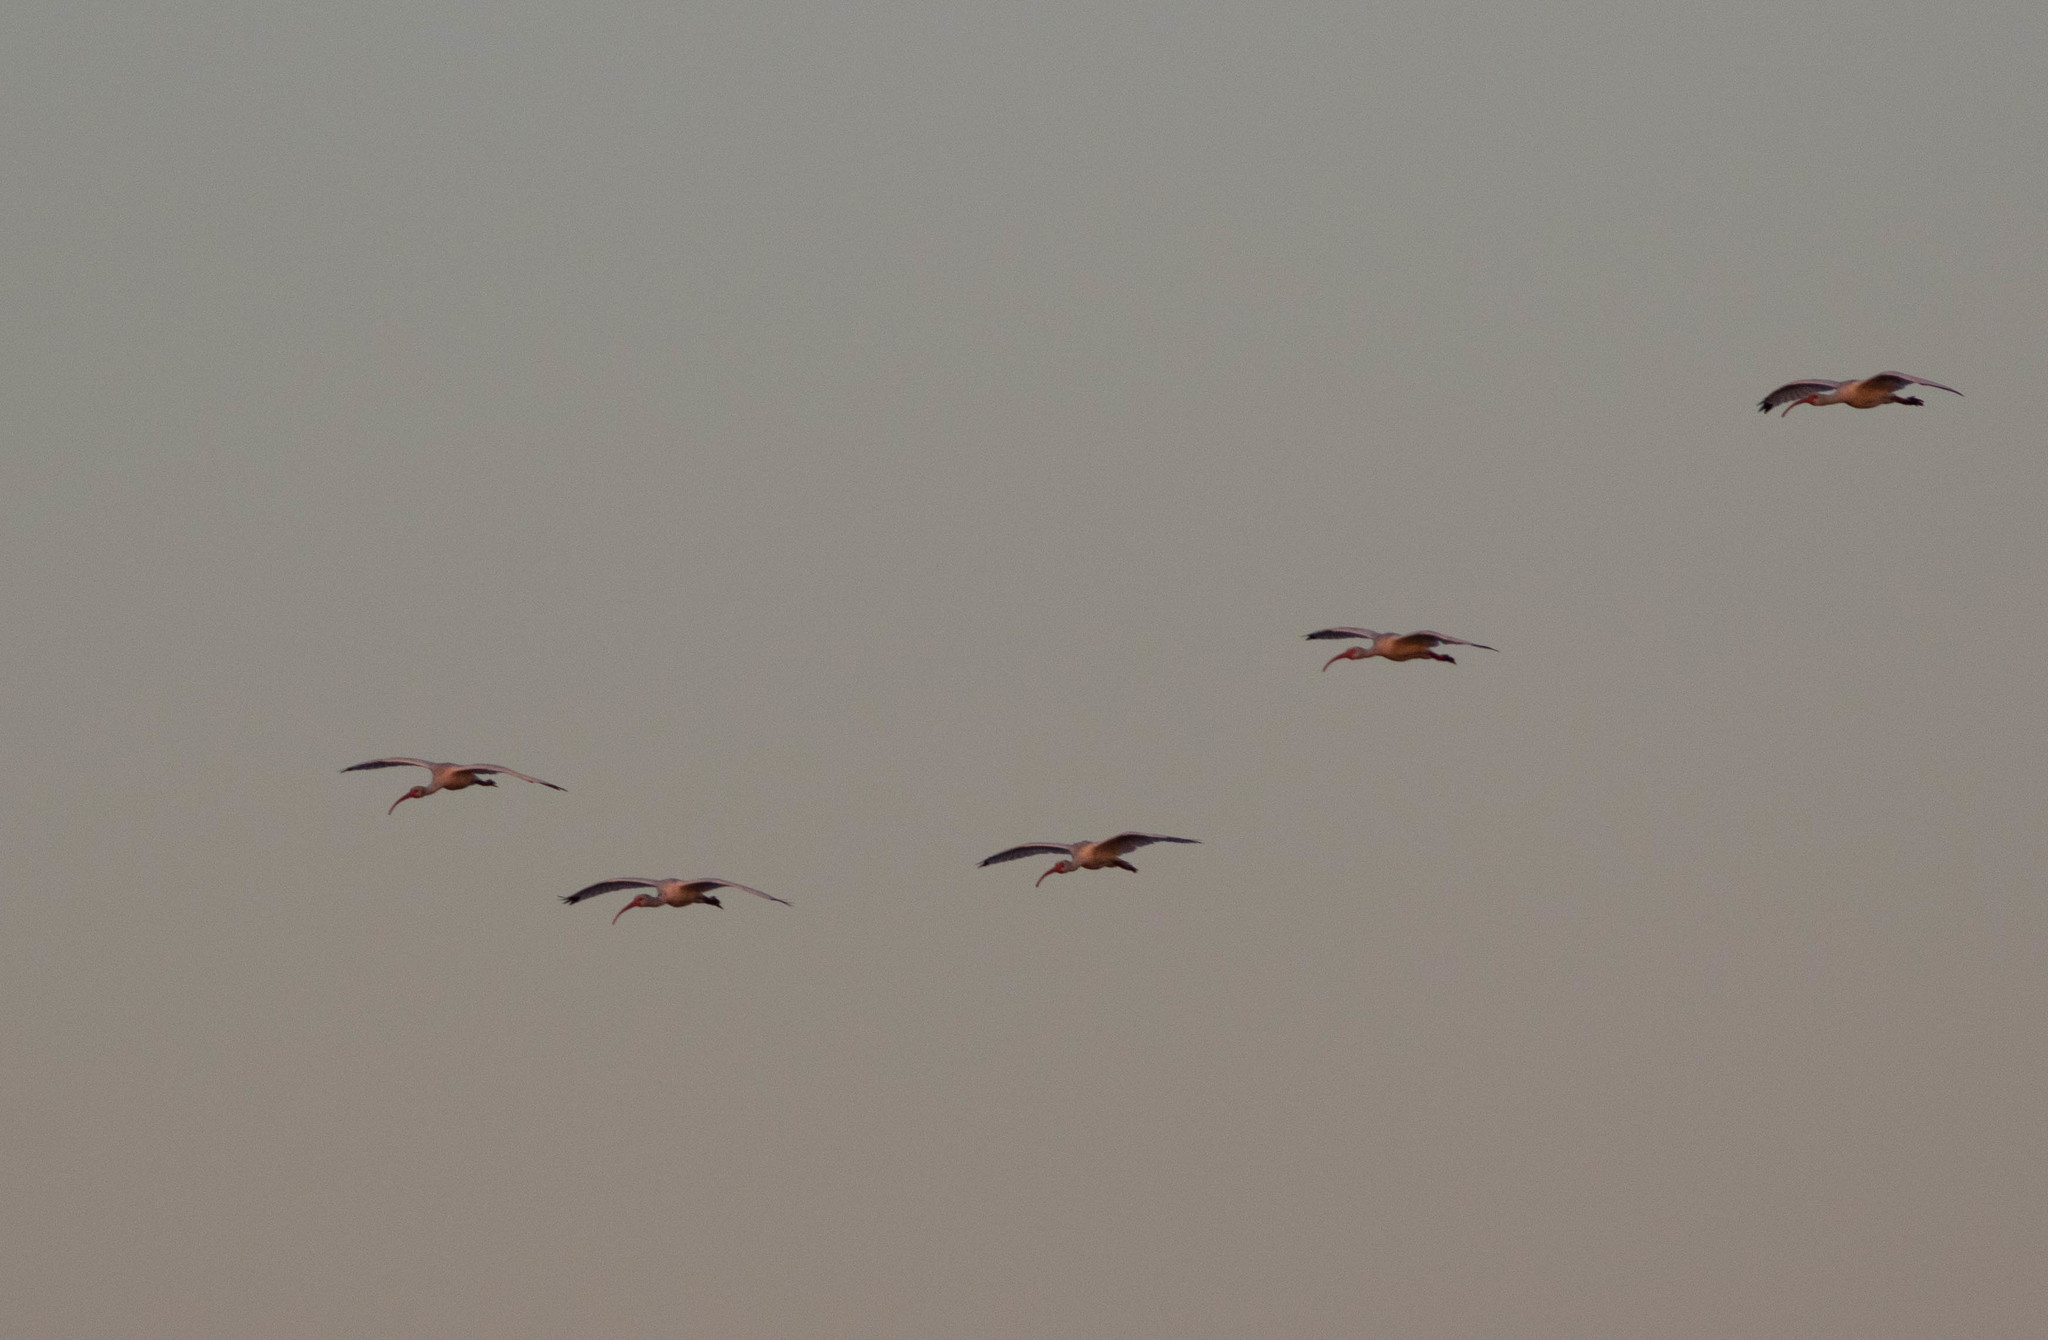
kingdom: Animalia
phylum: Chordata
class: Aves
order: Pelecaniformes
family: Threskiornithidae
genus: Eudocimus
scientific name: Eudocimus albus
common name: White ibis
